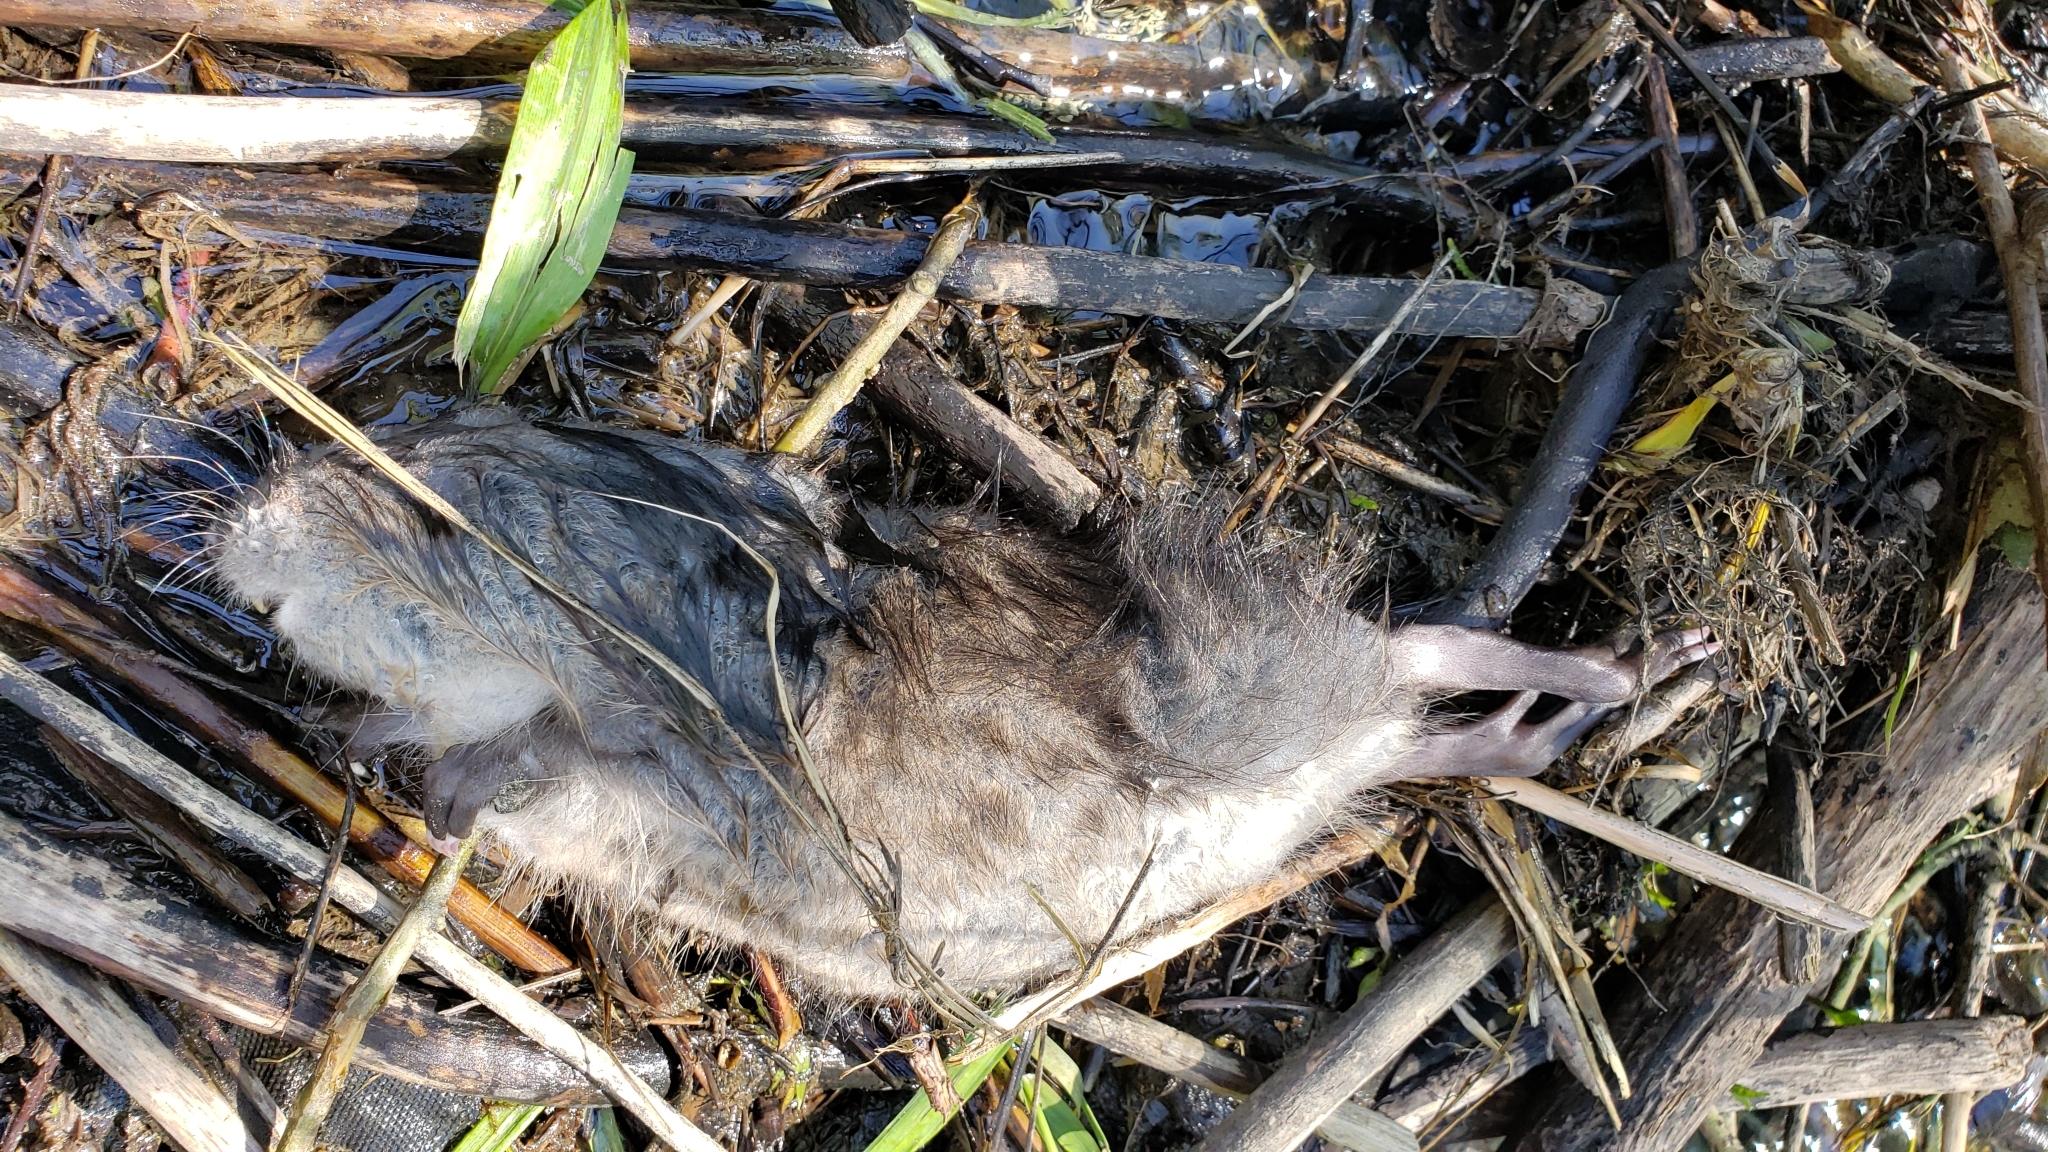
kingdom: Animalia
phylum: Chordata
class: Mammalia
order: Rodentia
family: Cricetidae
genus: Ondatra
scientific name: Ondatra zibethicus
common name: Muskrat
